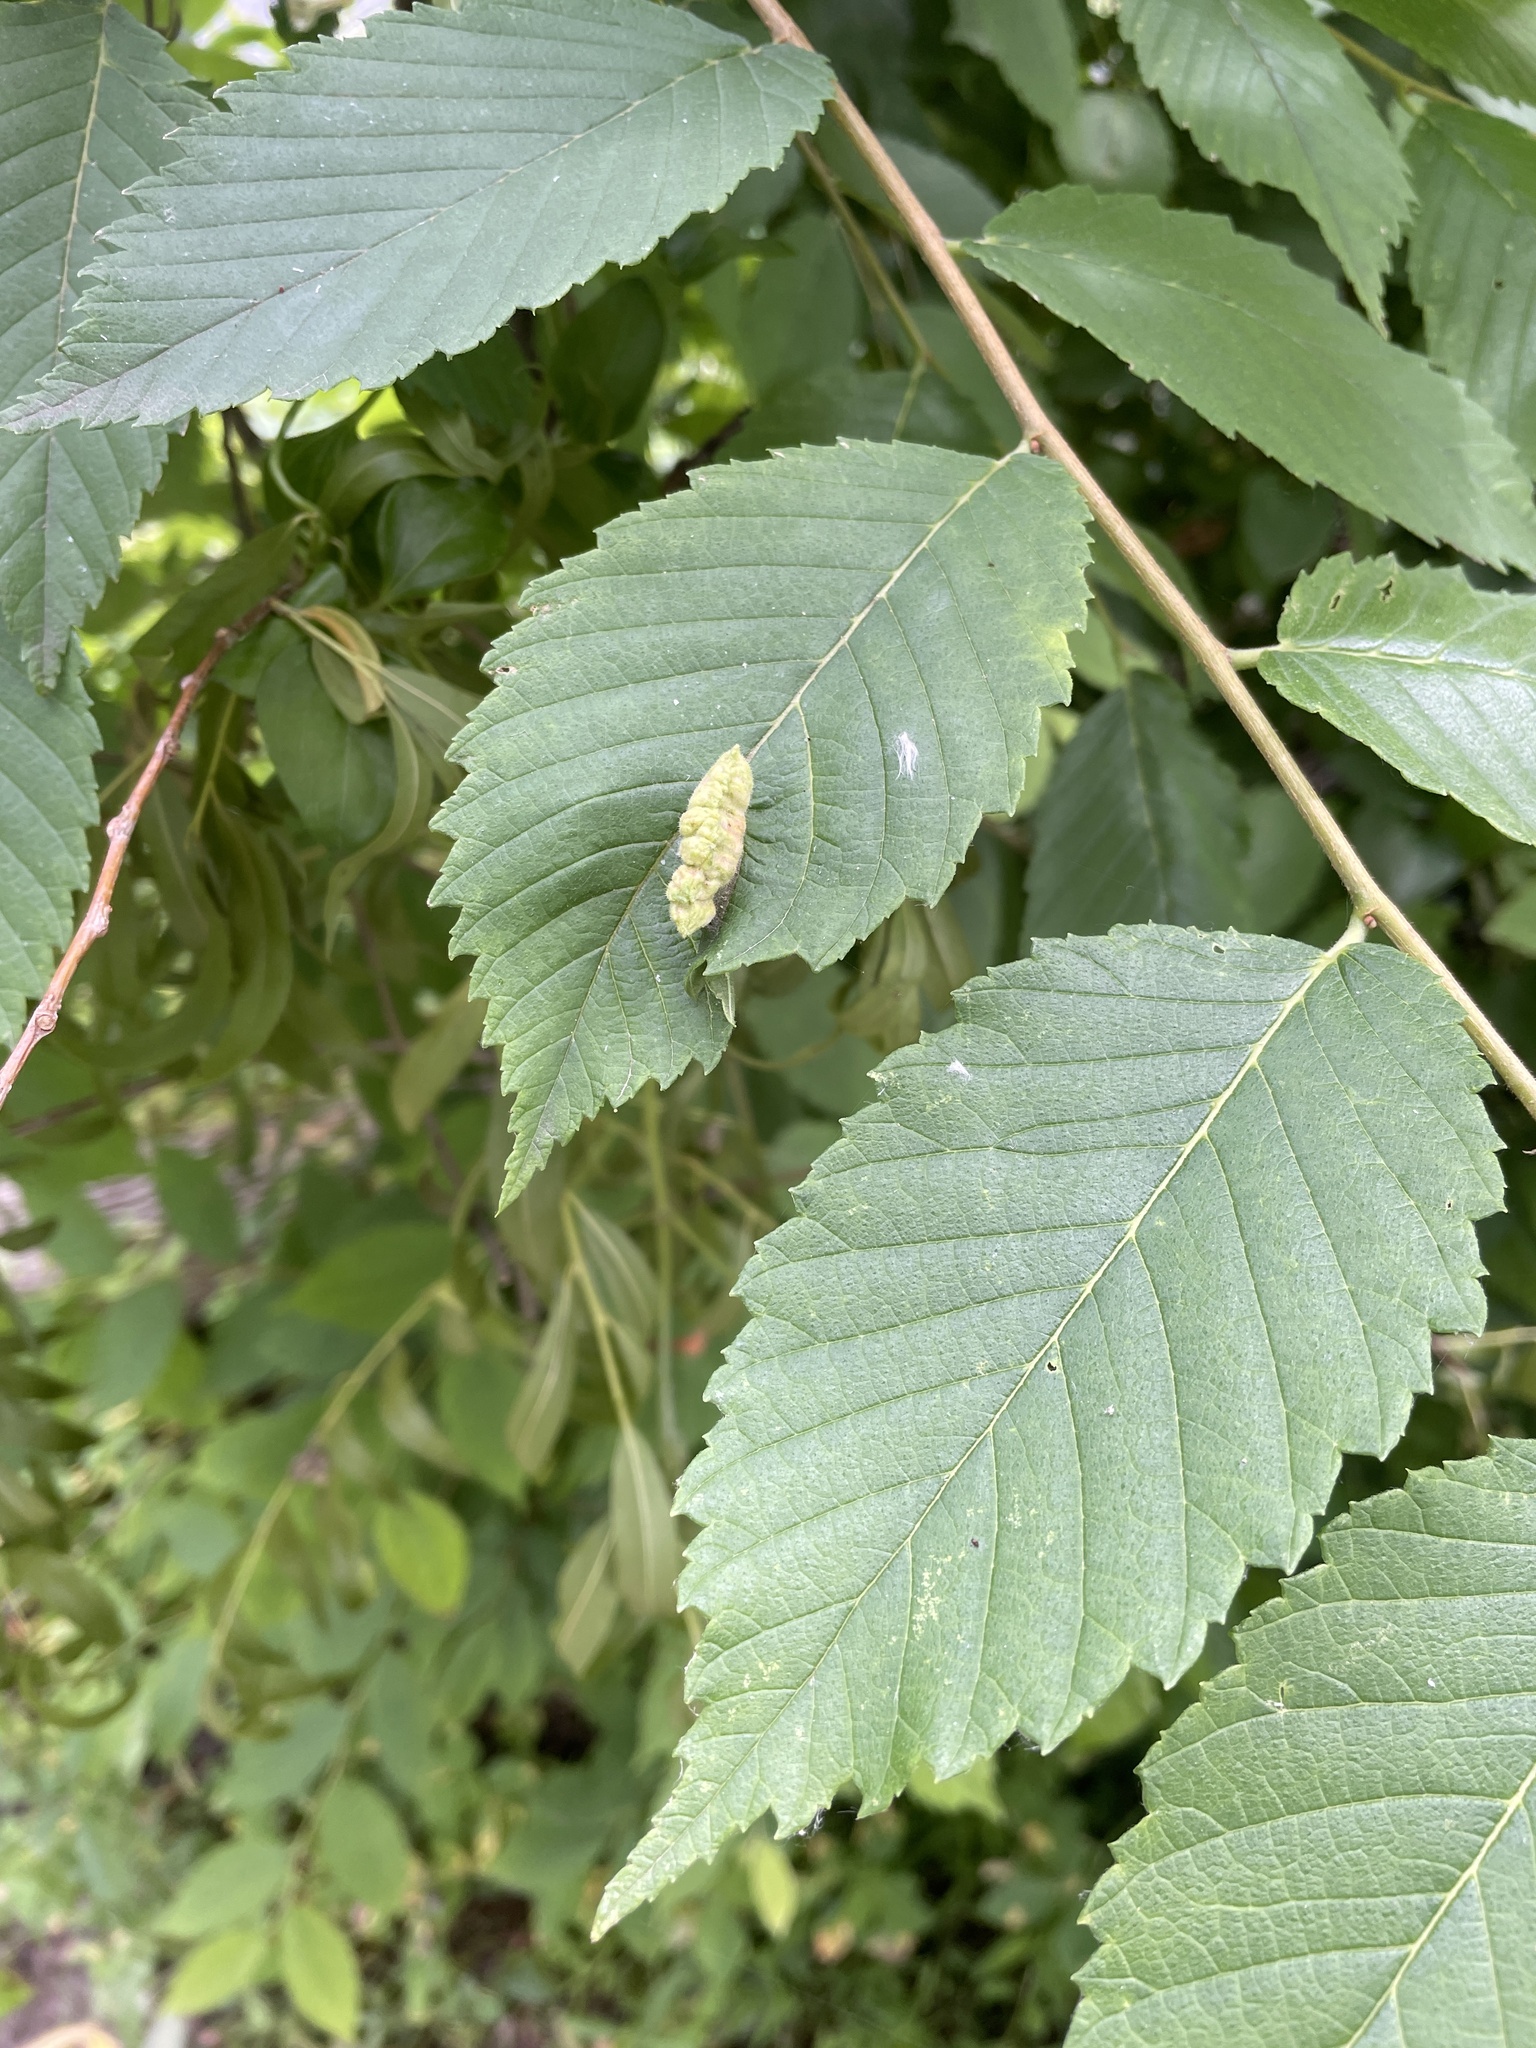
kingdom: Animalia
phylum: Arthropoda
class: Insecta
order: Hemiptera
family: Aphididae
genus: Colopha
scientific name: Colopha ulmicola
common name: Elm cockscombgall aphid
